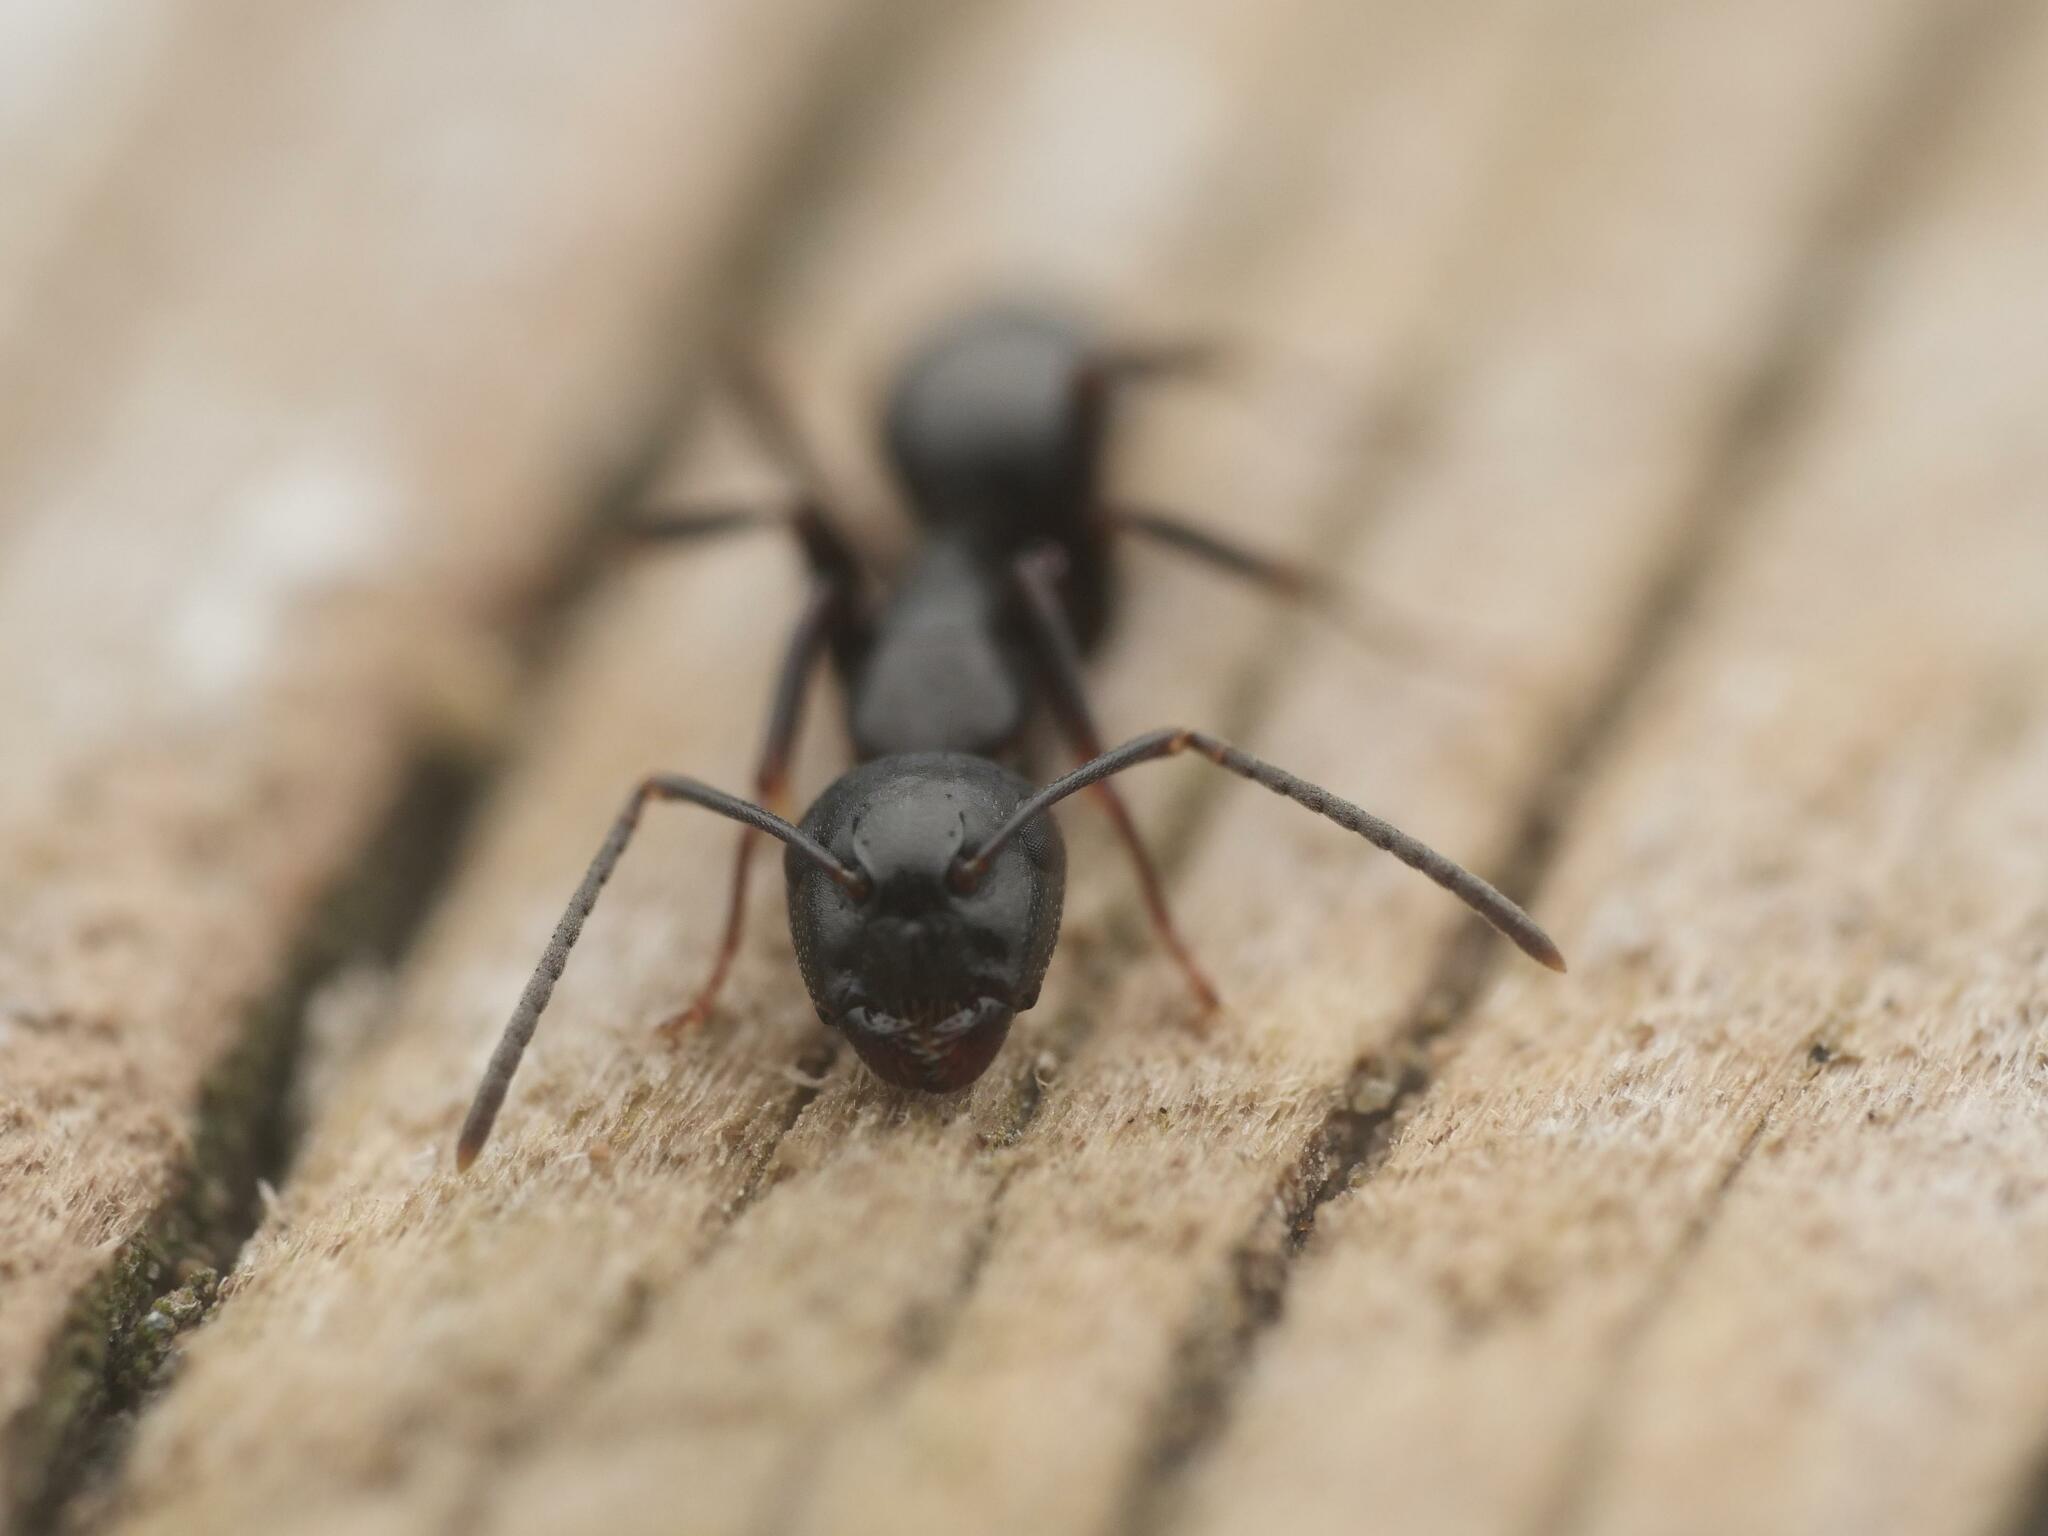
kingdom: Animalia
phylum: Arthropoda
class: Insecta
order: Hymenoptera
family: Formicidae
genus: Camponotus
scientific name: Camponotus nearcticus
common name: Smaller carpenter ant
